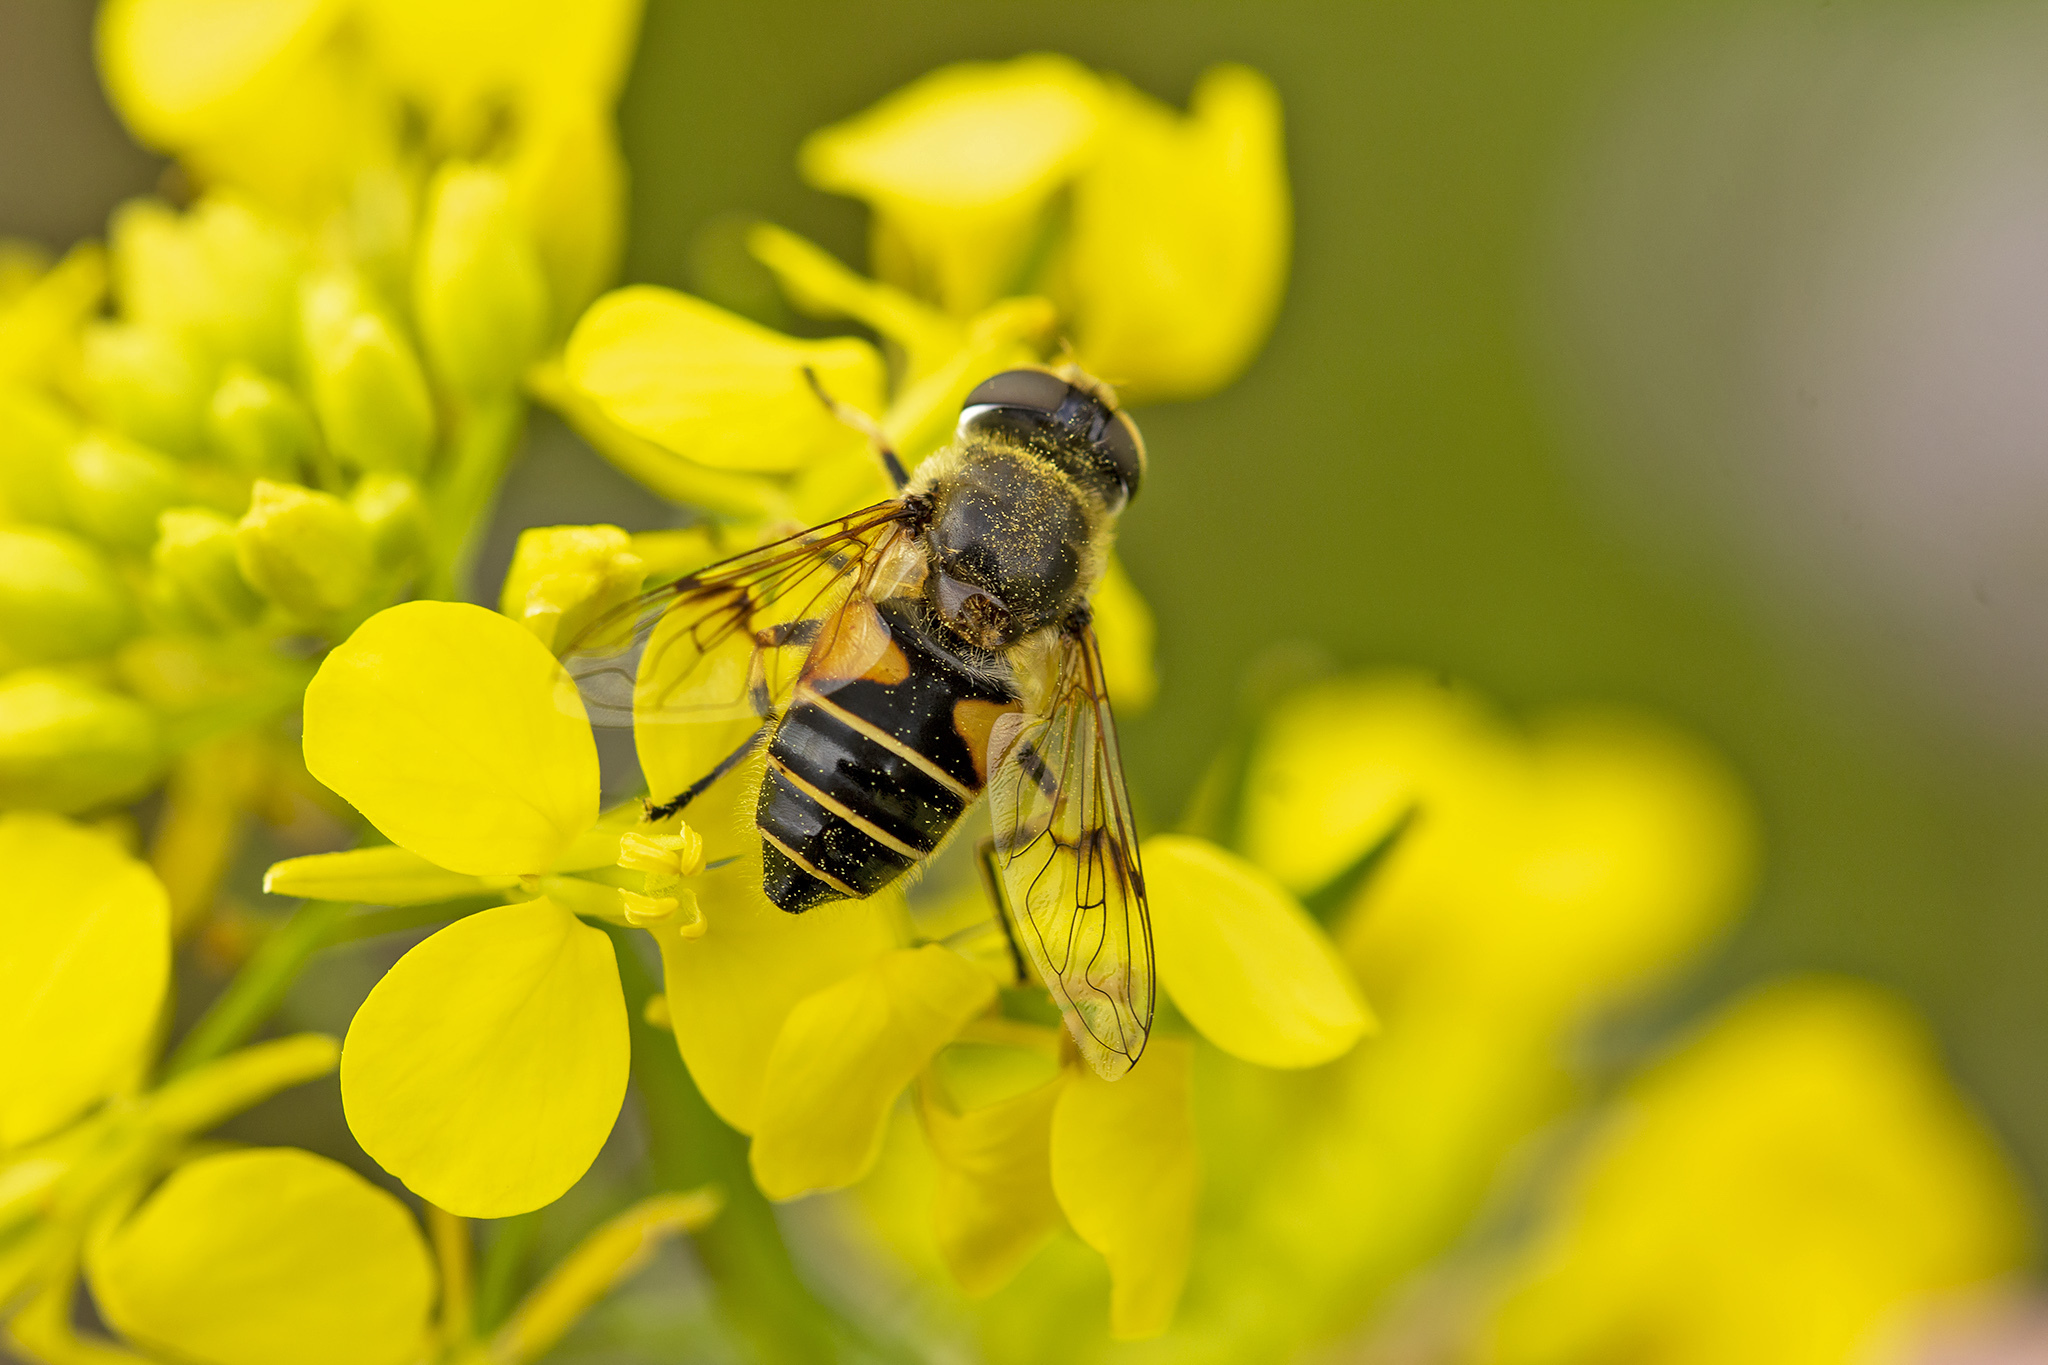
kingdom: Animalia
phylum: Arthropoda
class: Insecta
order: Diptera
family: Syrphidae
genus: Cheilosia
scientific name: Cheilosia morio
